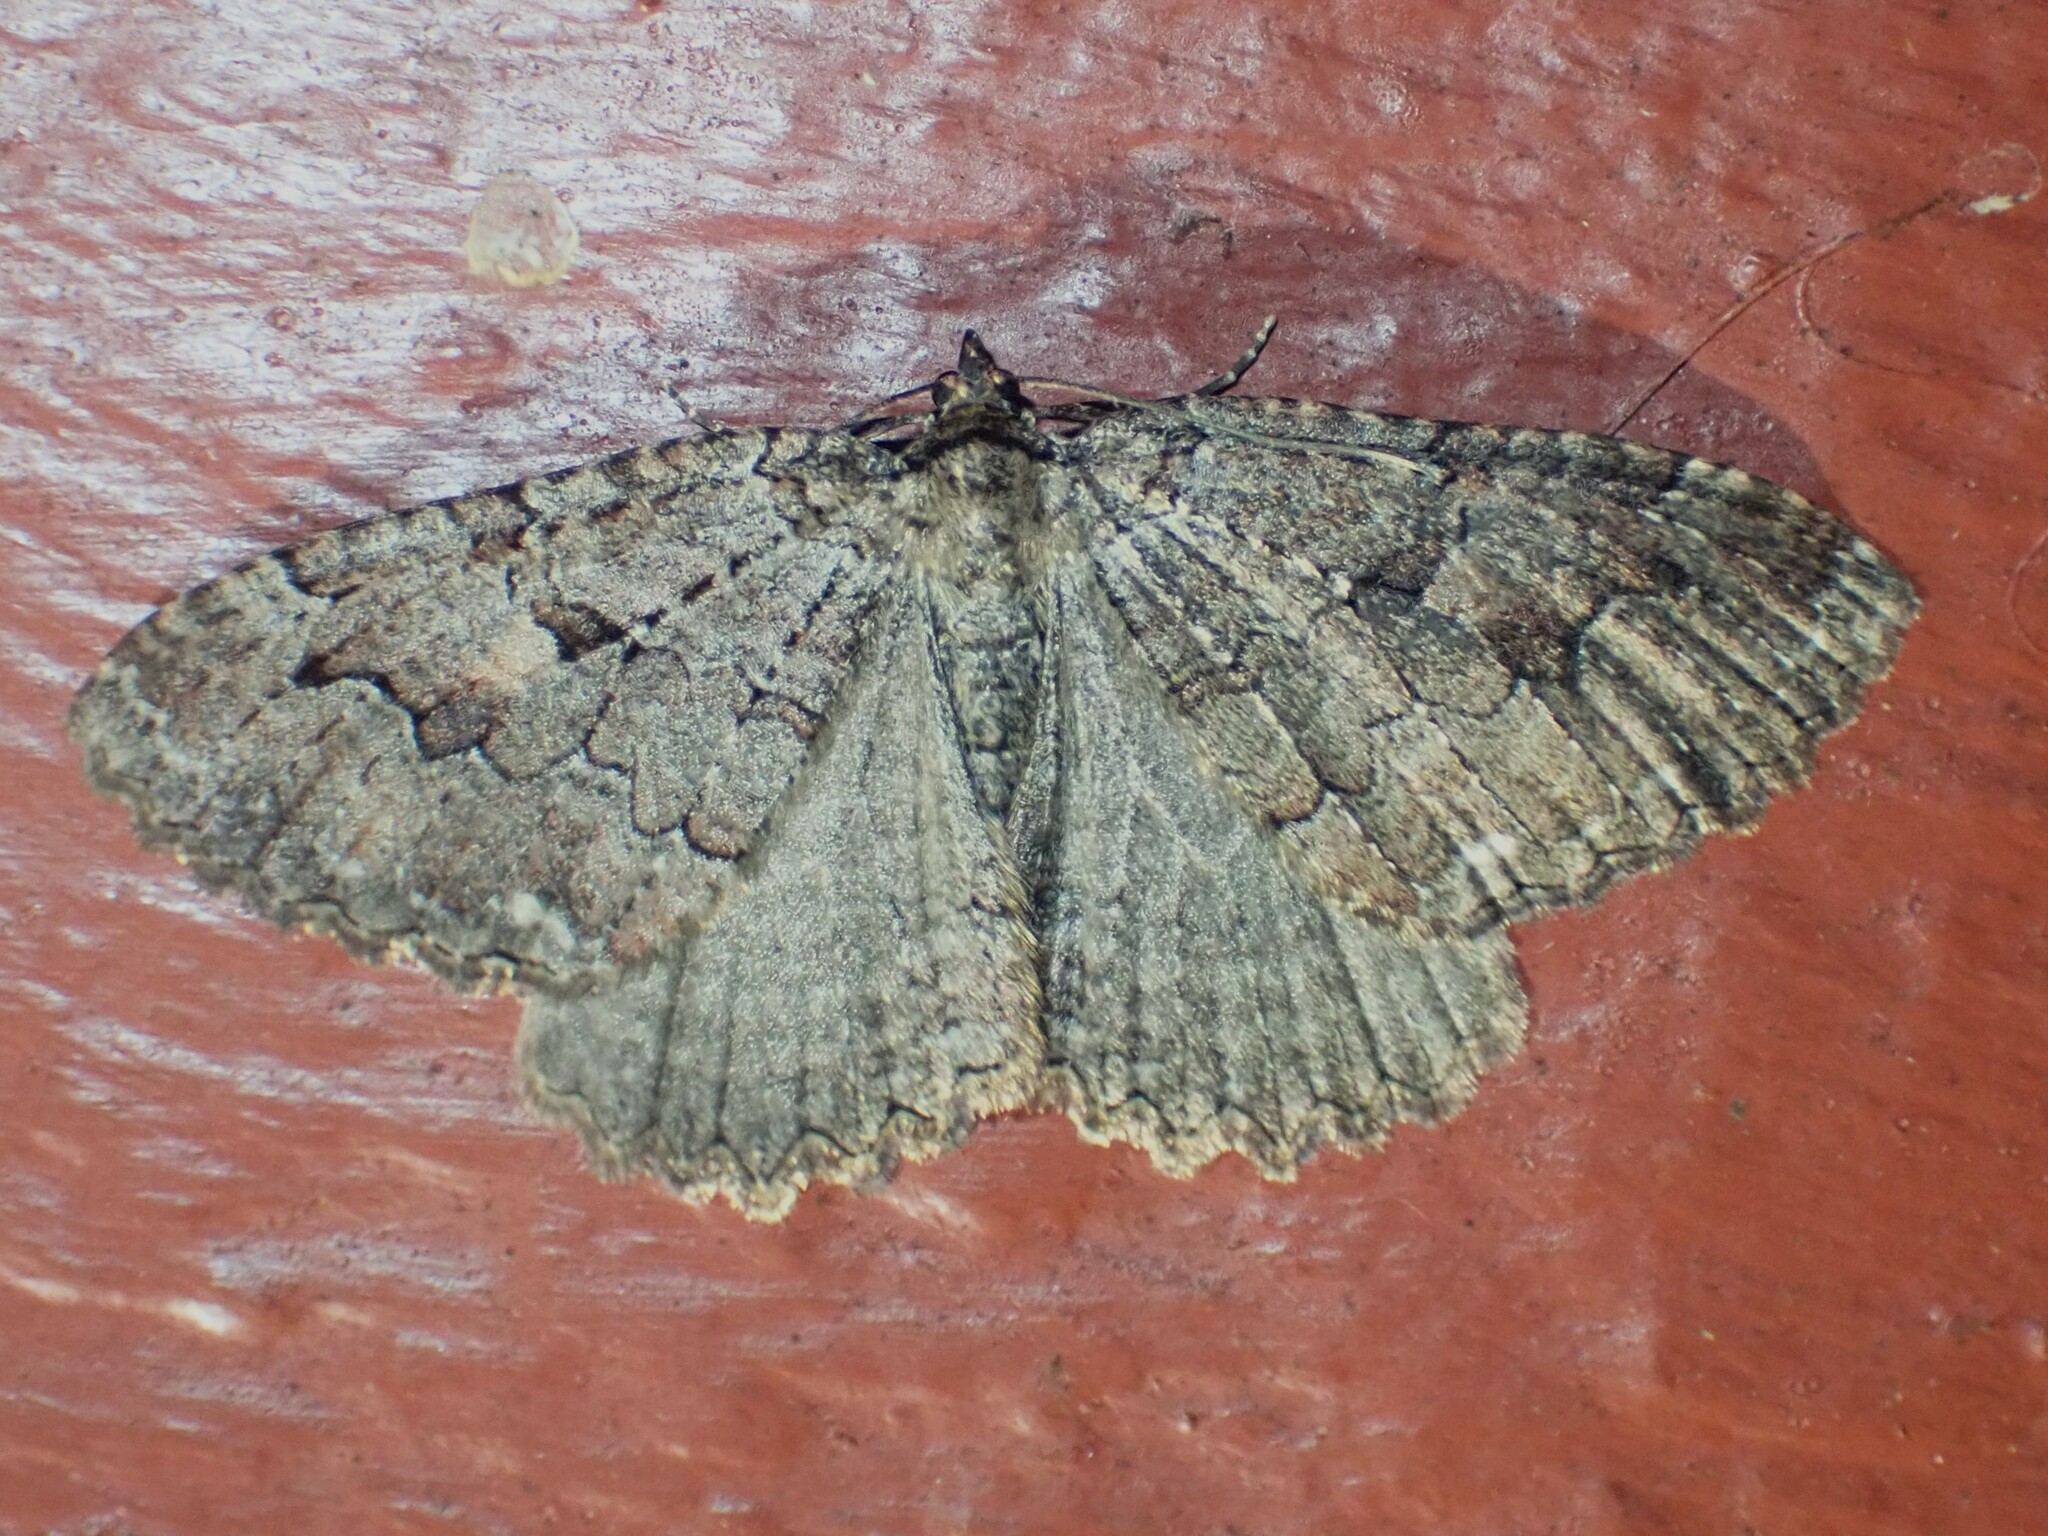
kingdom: Animalia
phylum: Arthropoda
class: Insecta
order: Lepidoptera
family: Geometridae
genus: Triphosa
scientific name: Triphosa haesitata
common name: Tissue moth
